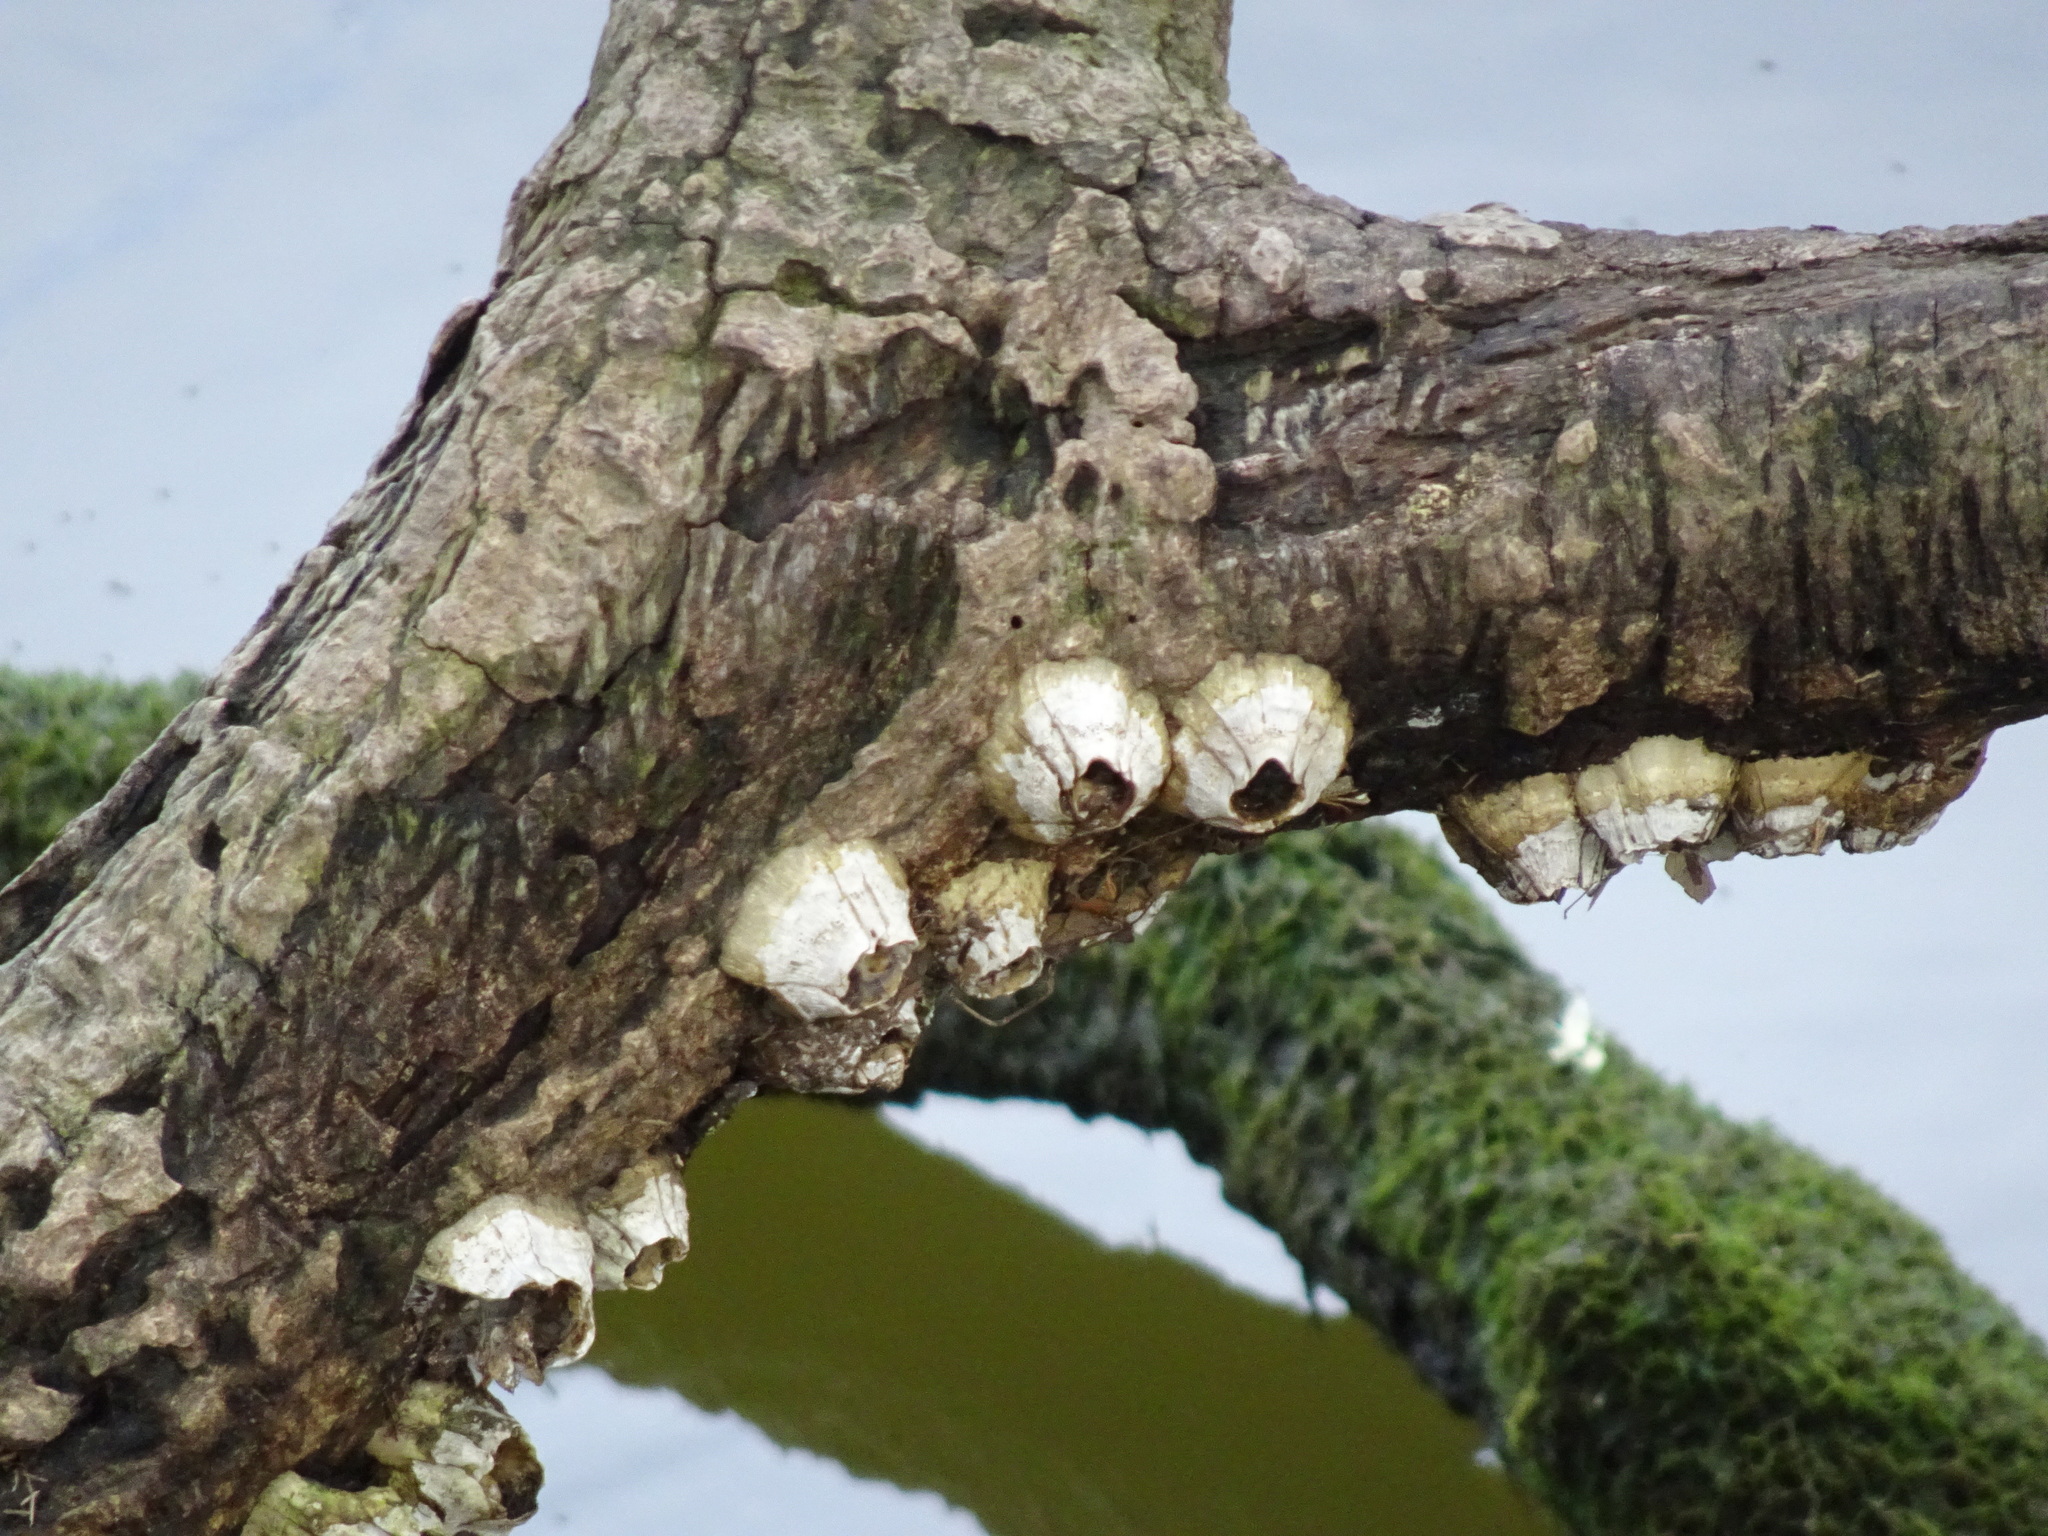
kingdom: Animalia
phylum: Arthropoda
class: Maxillopoda
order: Sessilia
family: Balanidae
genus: Amphibalanus
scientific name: Amphibalanus improvisus
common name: Bay barnacle
